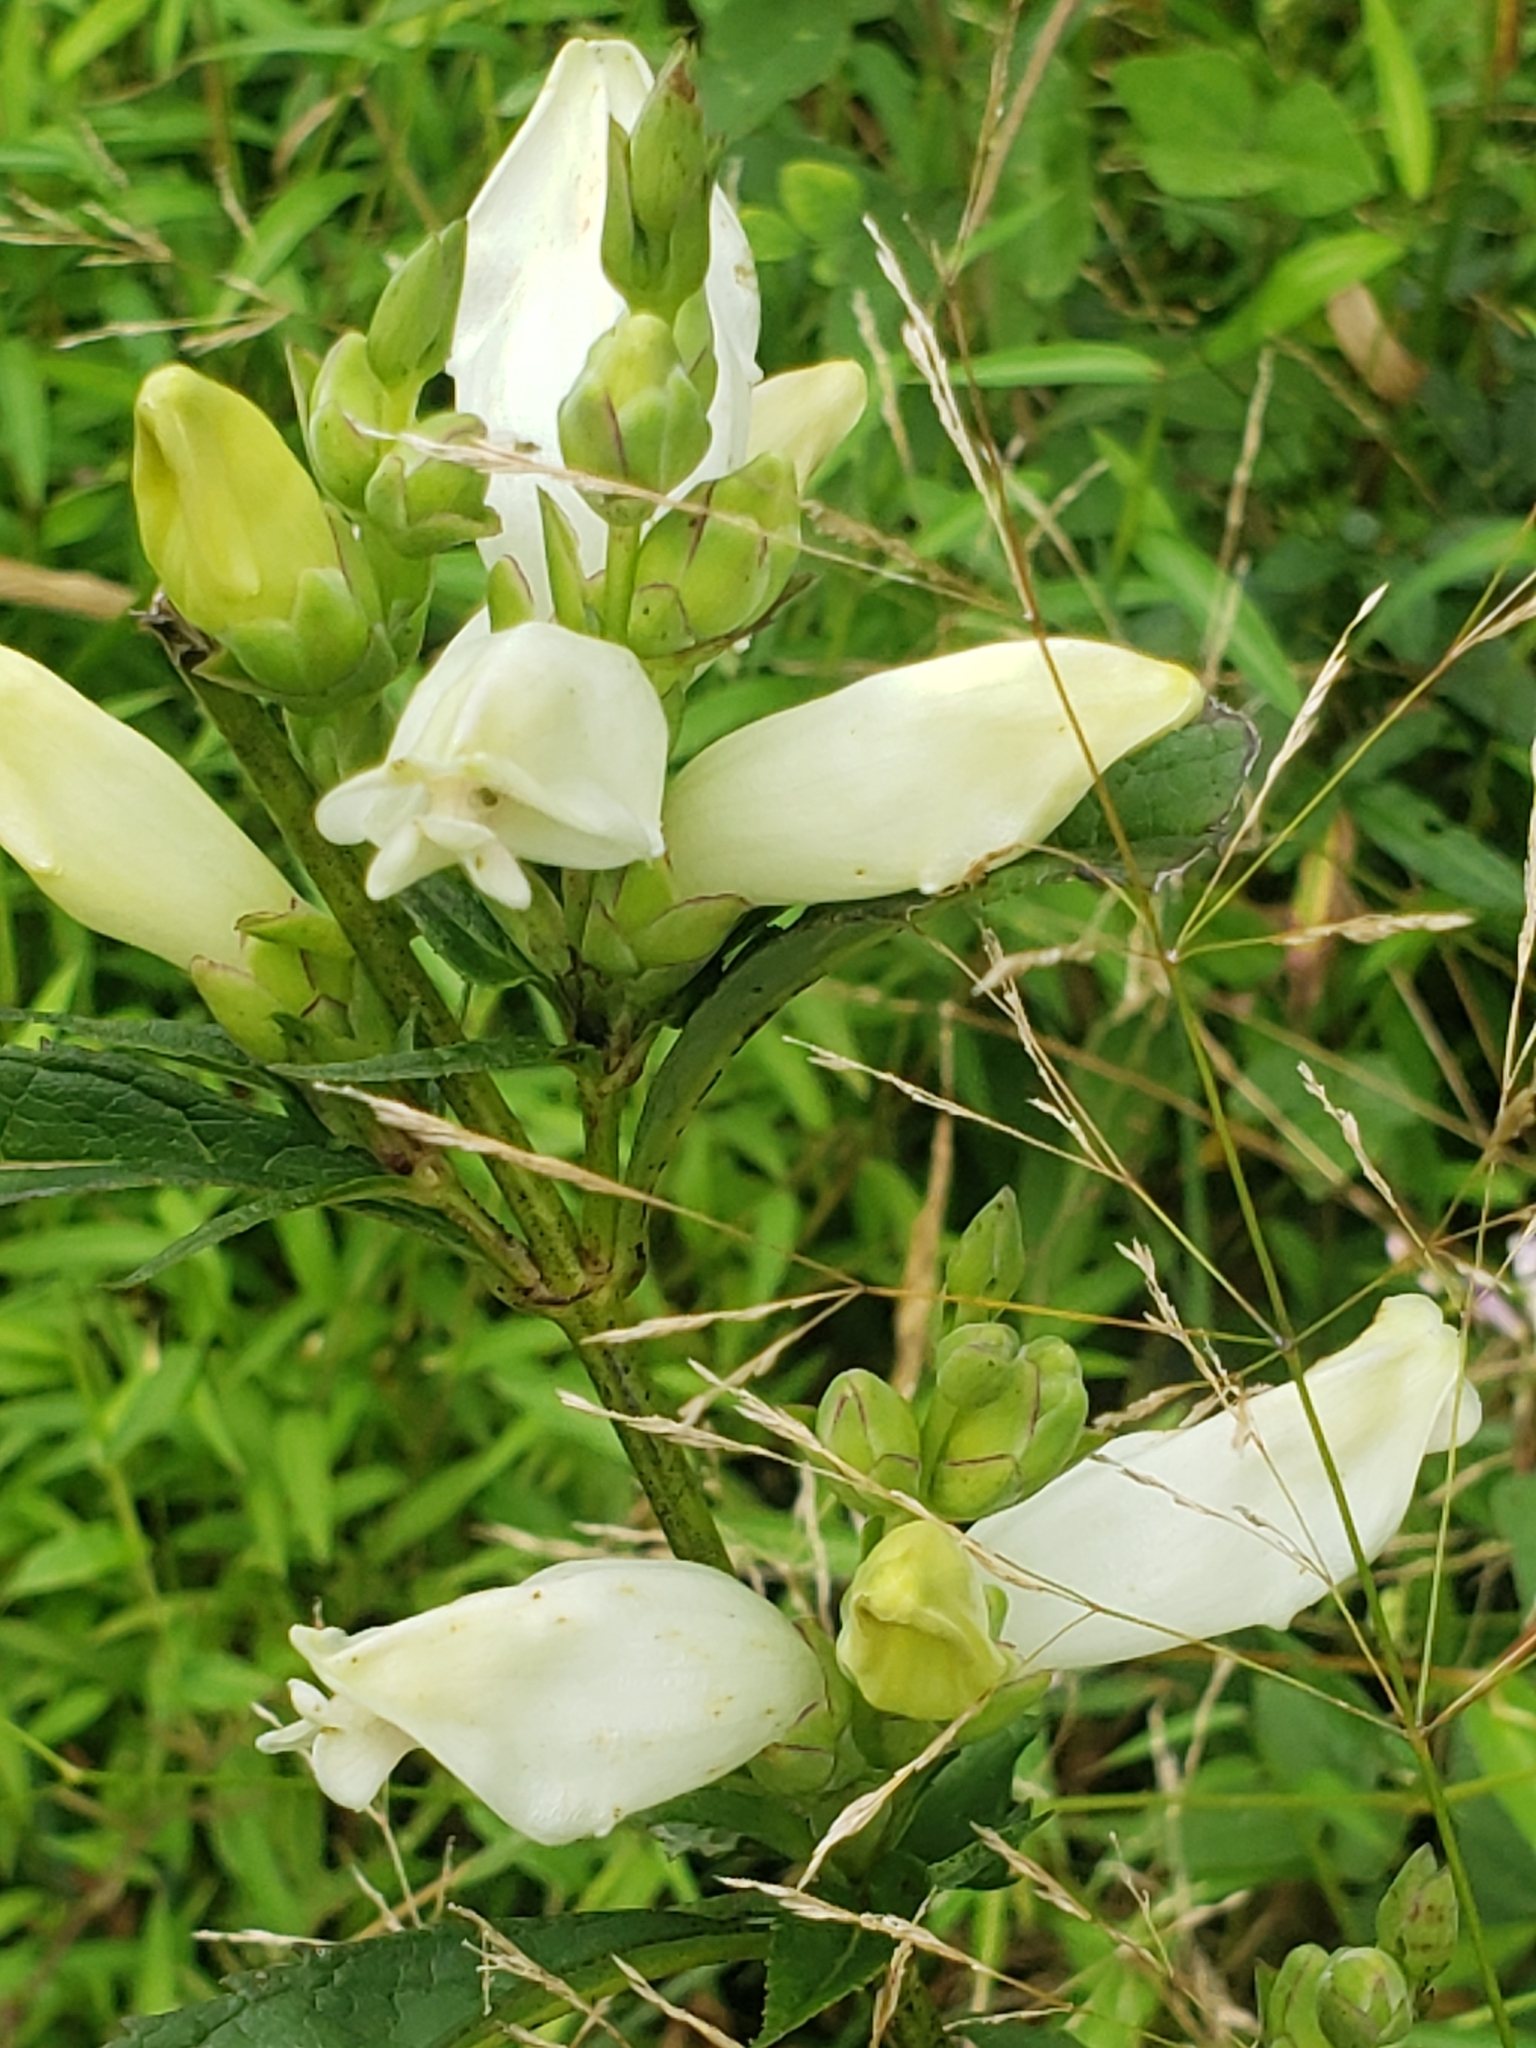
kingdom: Plantae
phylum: Tracheophyta
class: Magnoliopsida
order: Lamiales
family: Plantaginaceae
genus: Chelone
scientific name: Chelone glabra
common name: Snakehead
